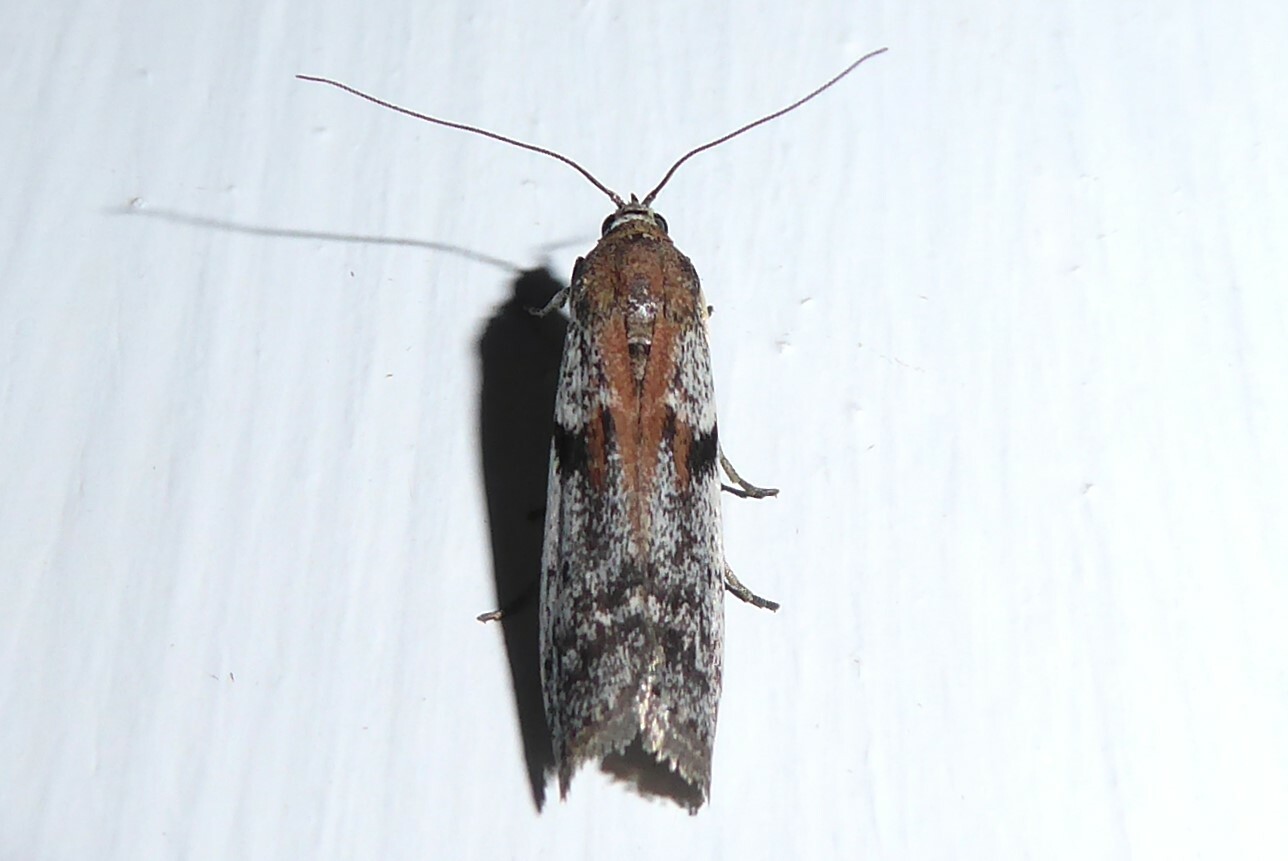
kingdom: Animalia
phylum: Arthropoda
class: Insecta
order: Lepidoptera
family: Pyralidae
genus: Patagoniodes
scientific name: Patagoniodes farinaria
